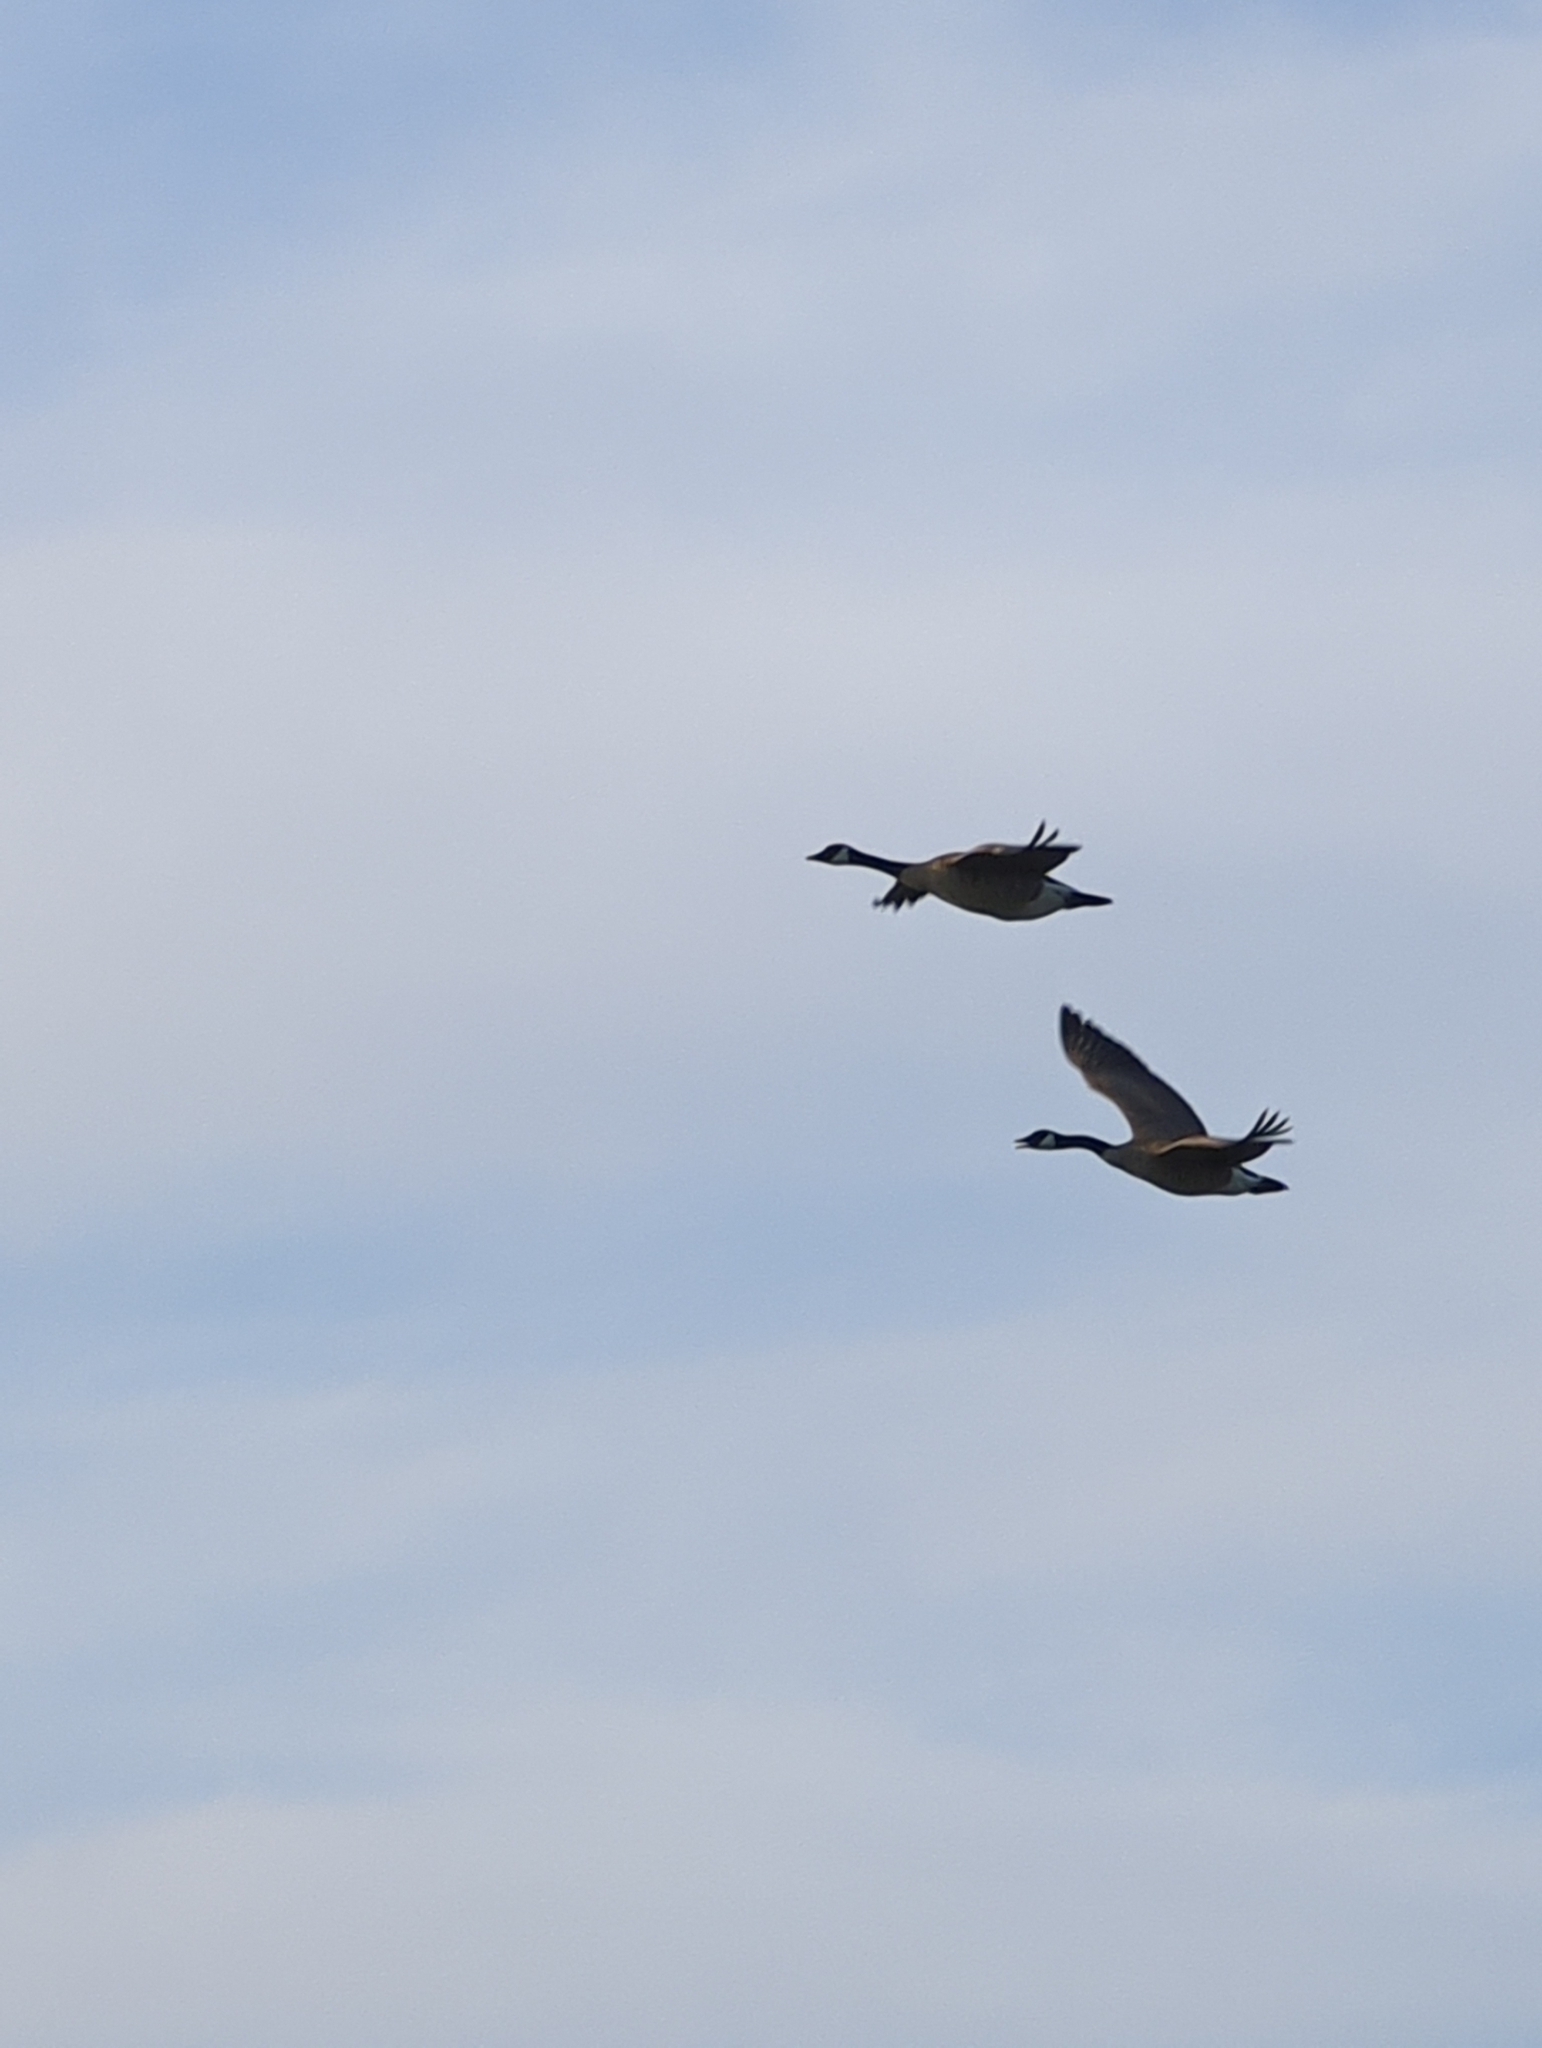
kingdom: Animalia
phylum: Chordata
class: Aves
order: Anseriformes
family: Anatidae
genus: Branta
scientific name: Branta canadensis
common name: Canada goose
